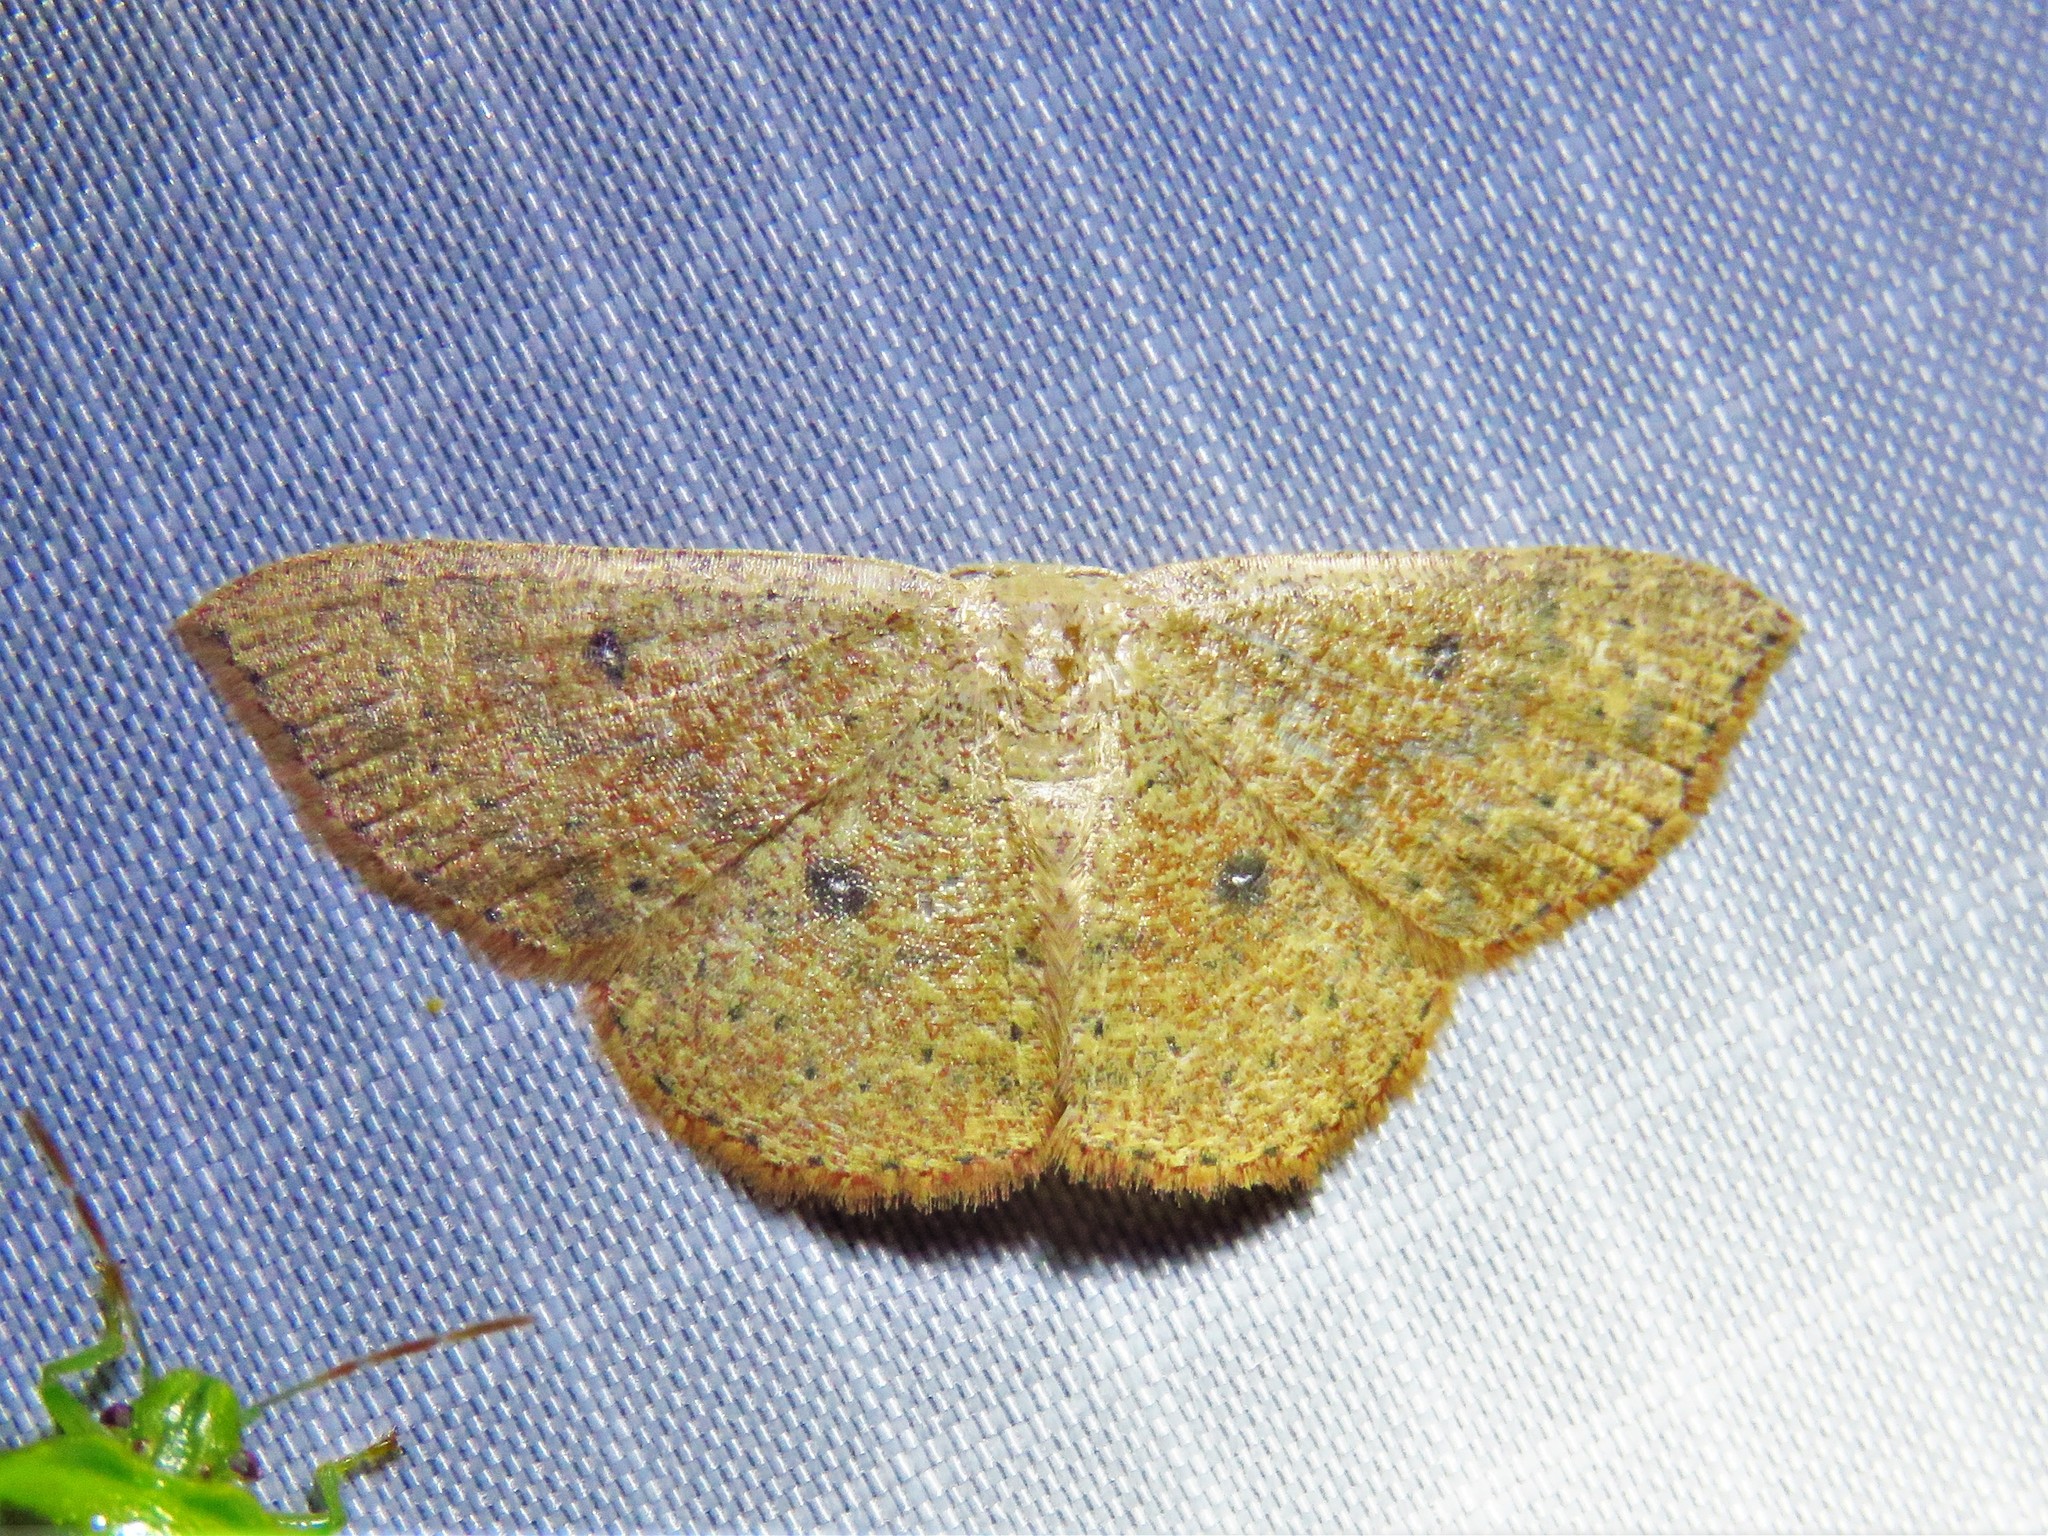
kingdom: Animalia
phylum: Arthropoda
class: Insecta
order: Lepidoptera
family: Geometridae
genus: Cyclophora
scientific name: Cyclophora packardi
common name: Packard's wave
